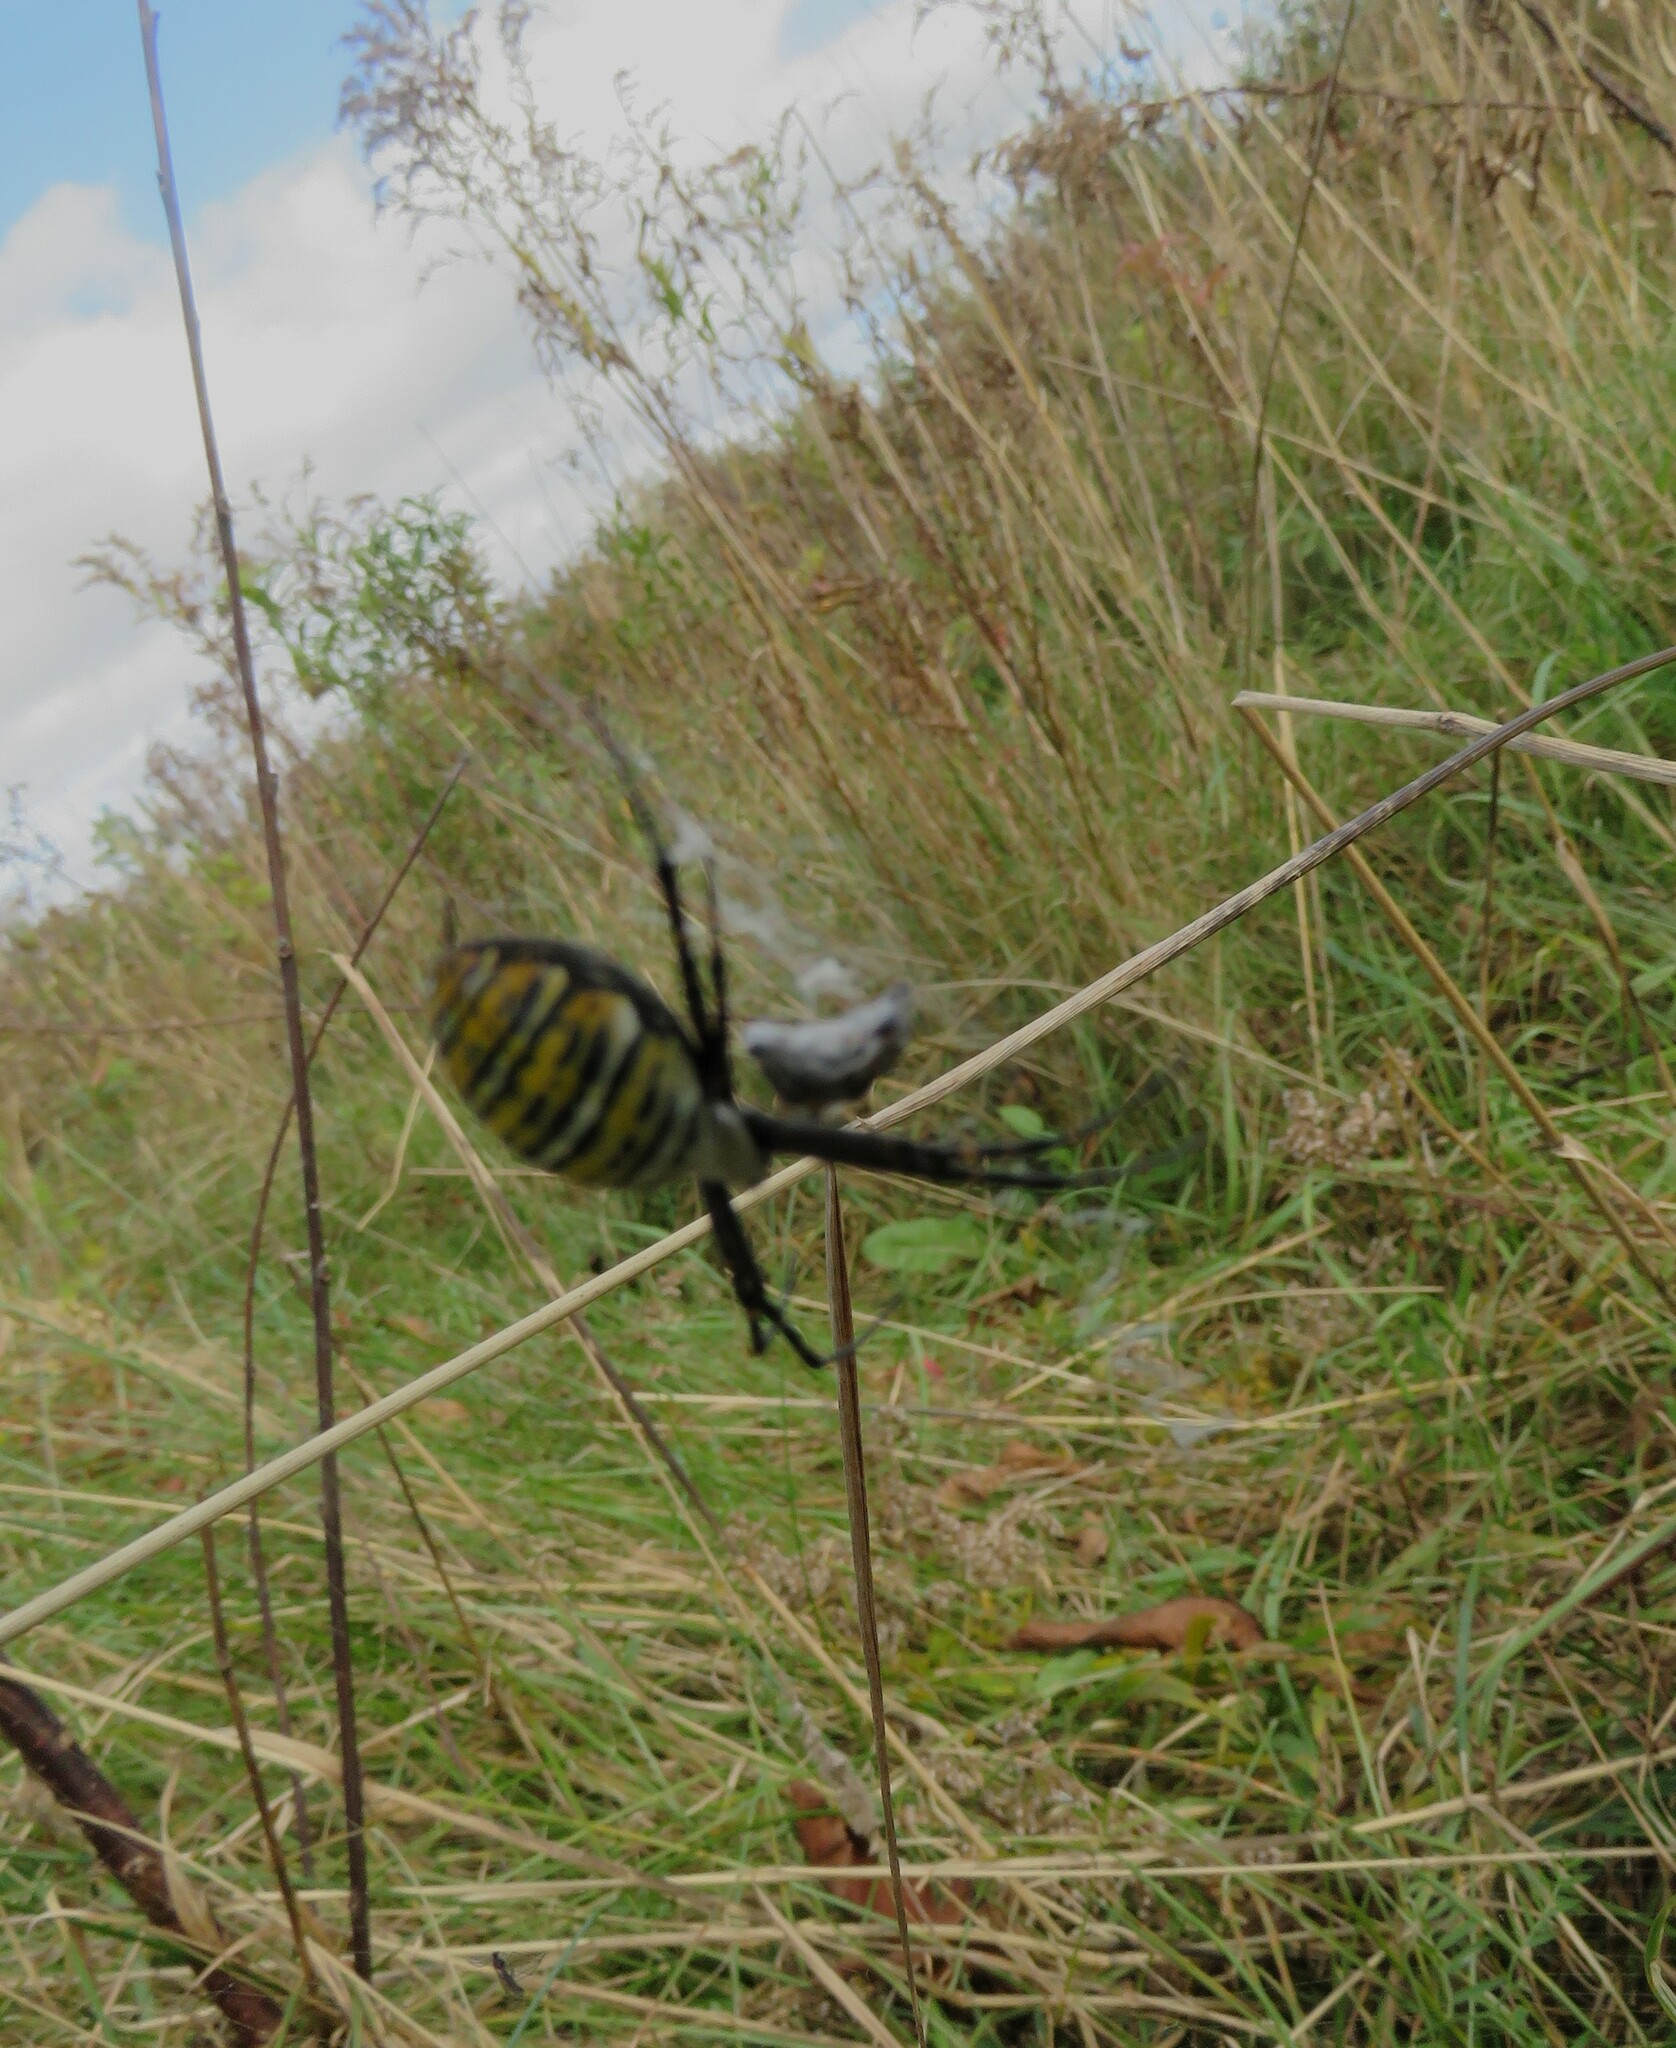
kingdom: Animalia
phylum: Arthropoda
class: Arachnida
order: Araneae
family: Araneidae
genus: Argiope
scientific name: Argiope trifasciata
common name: Banded garden spider
